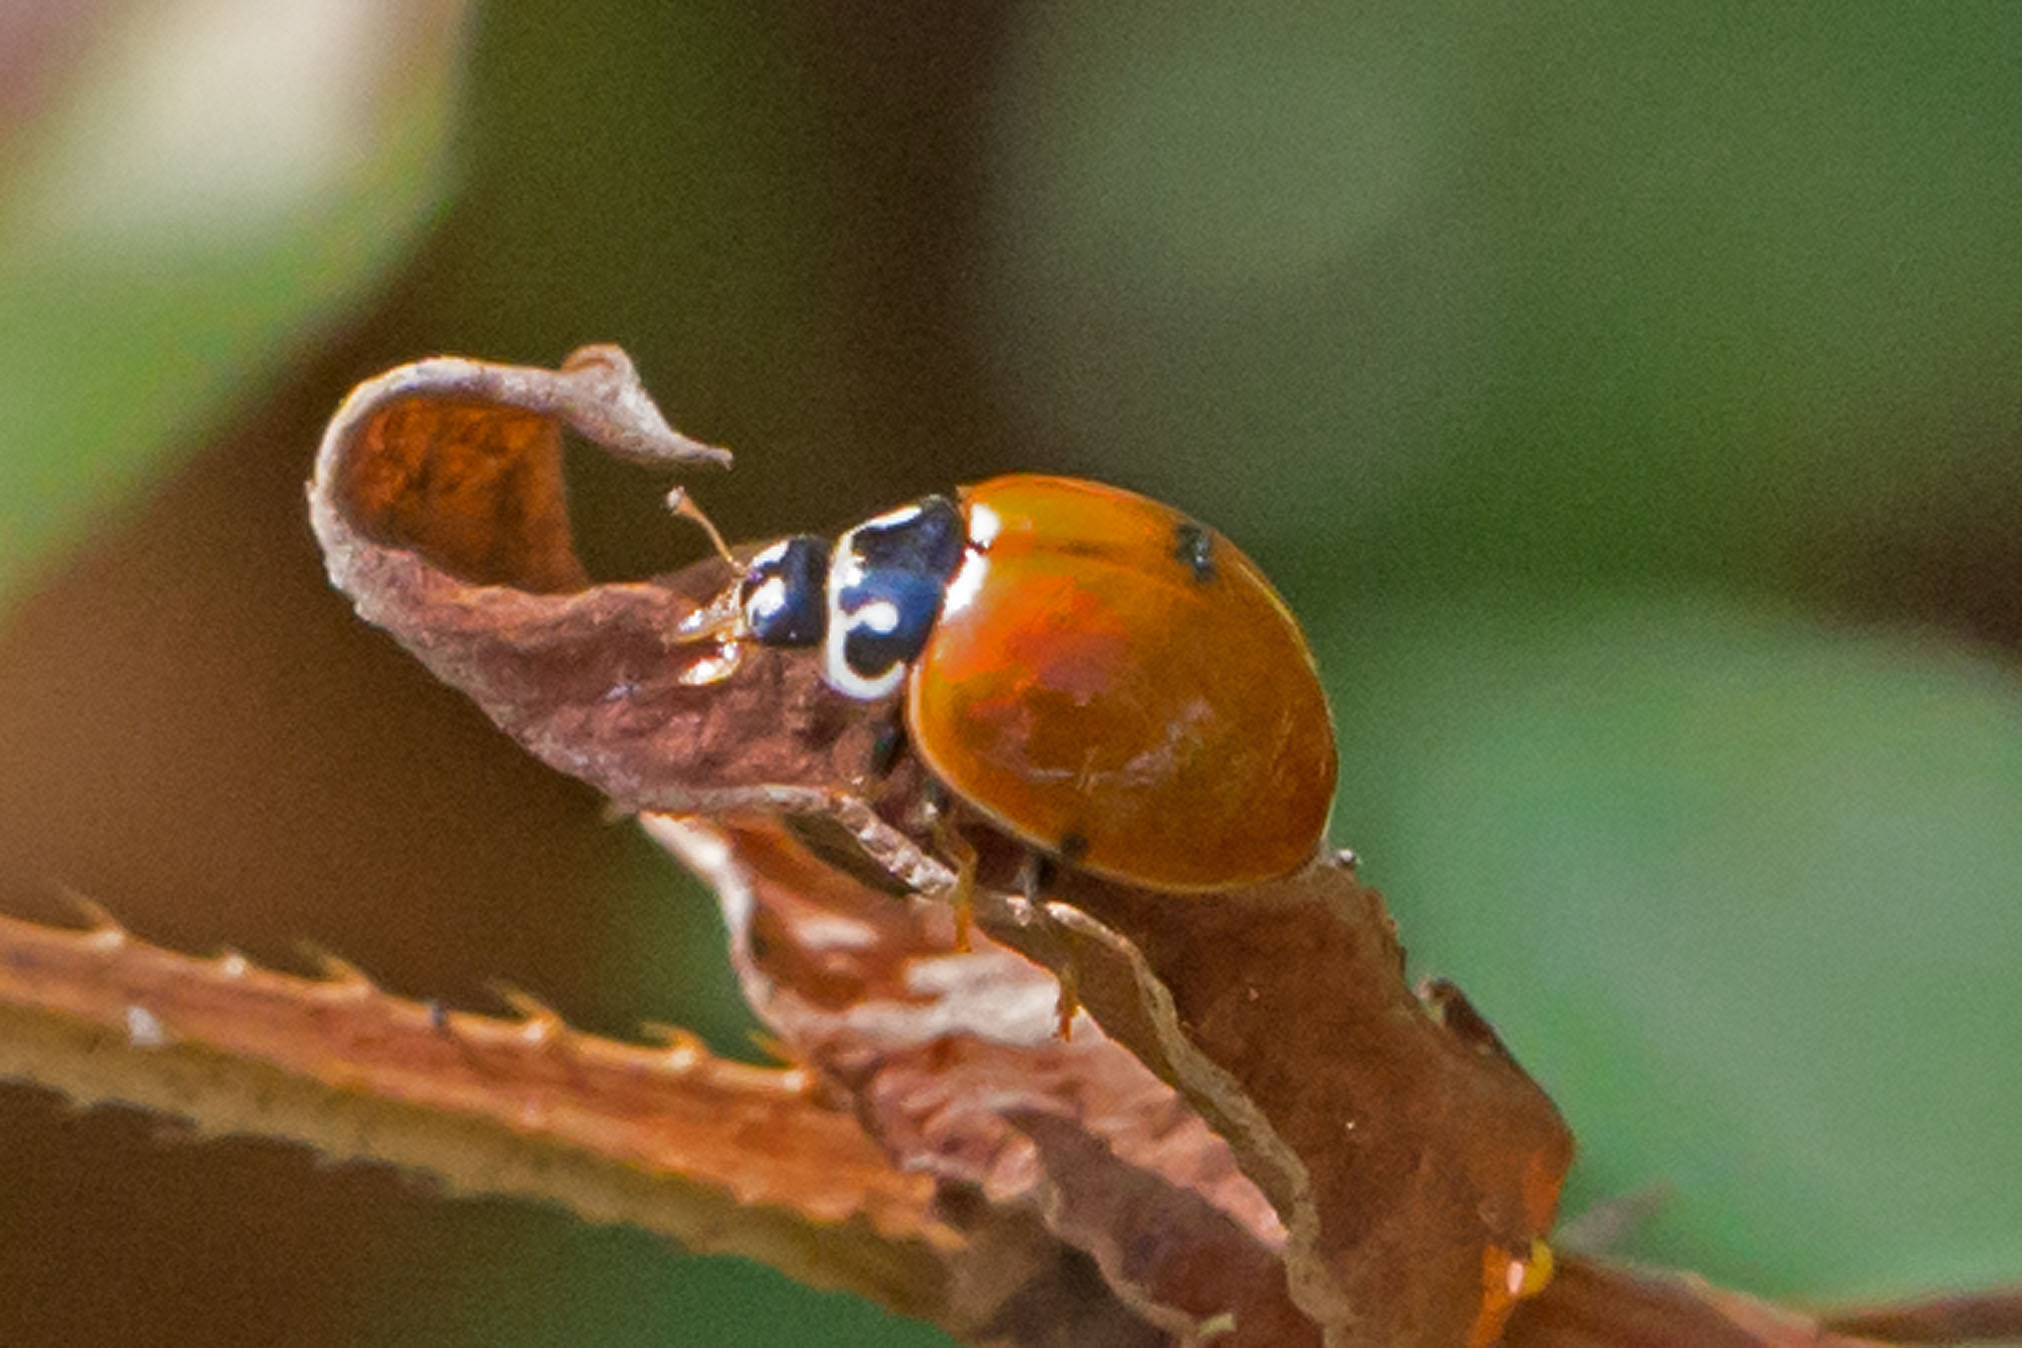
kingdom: Animalia
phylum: Arthropoda
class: Insecta
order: Coleoptera
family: Coccinellidae
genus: Cycloneda
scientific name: Cycloneda munda
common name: Polished lady beetle
